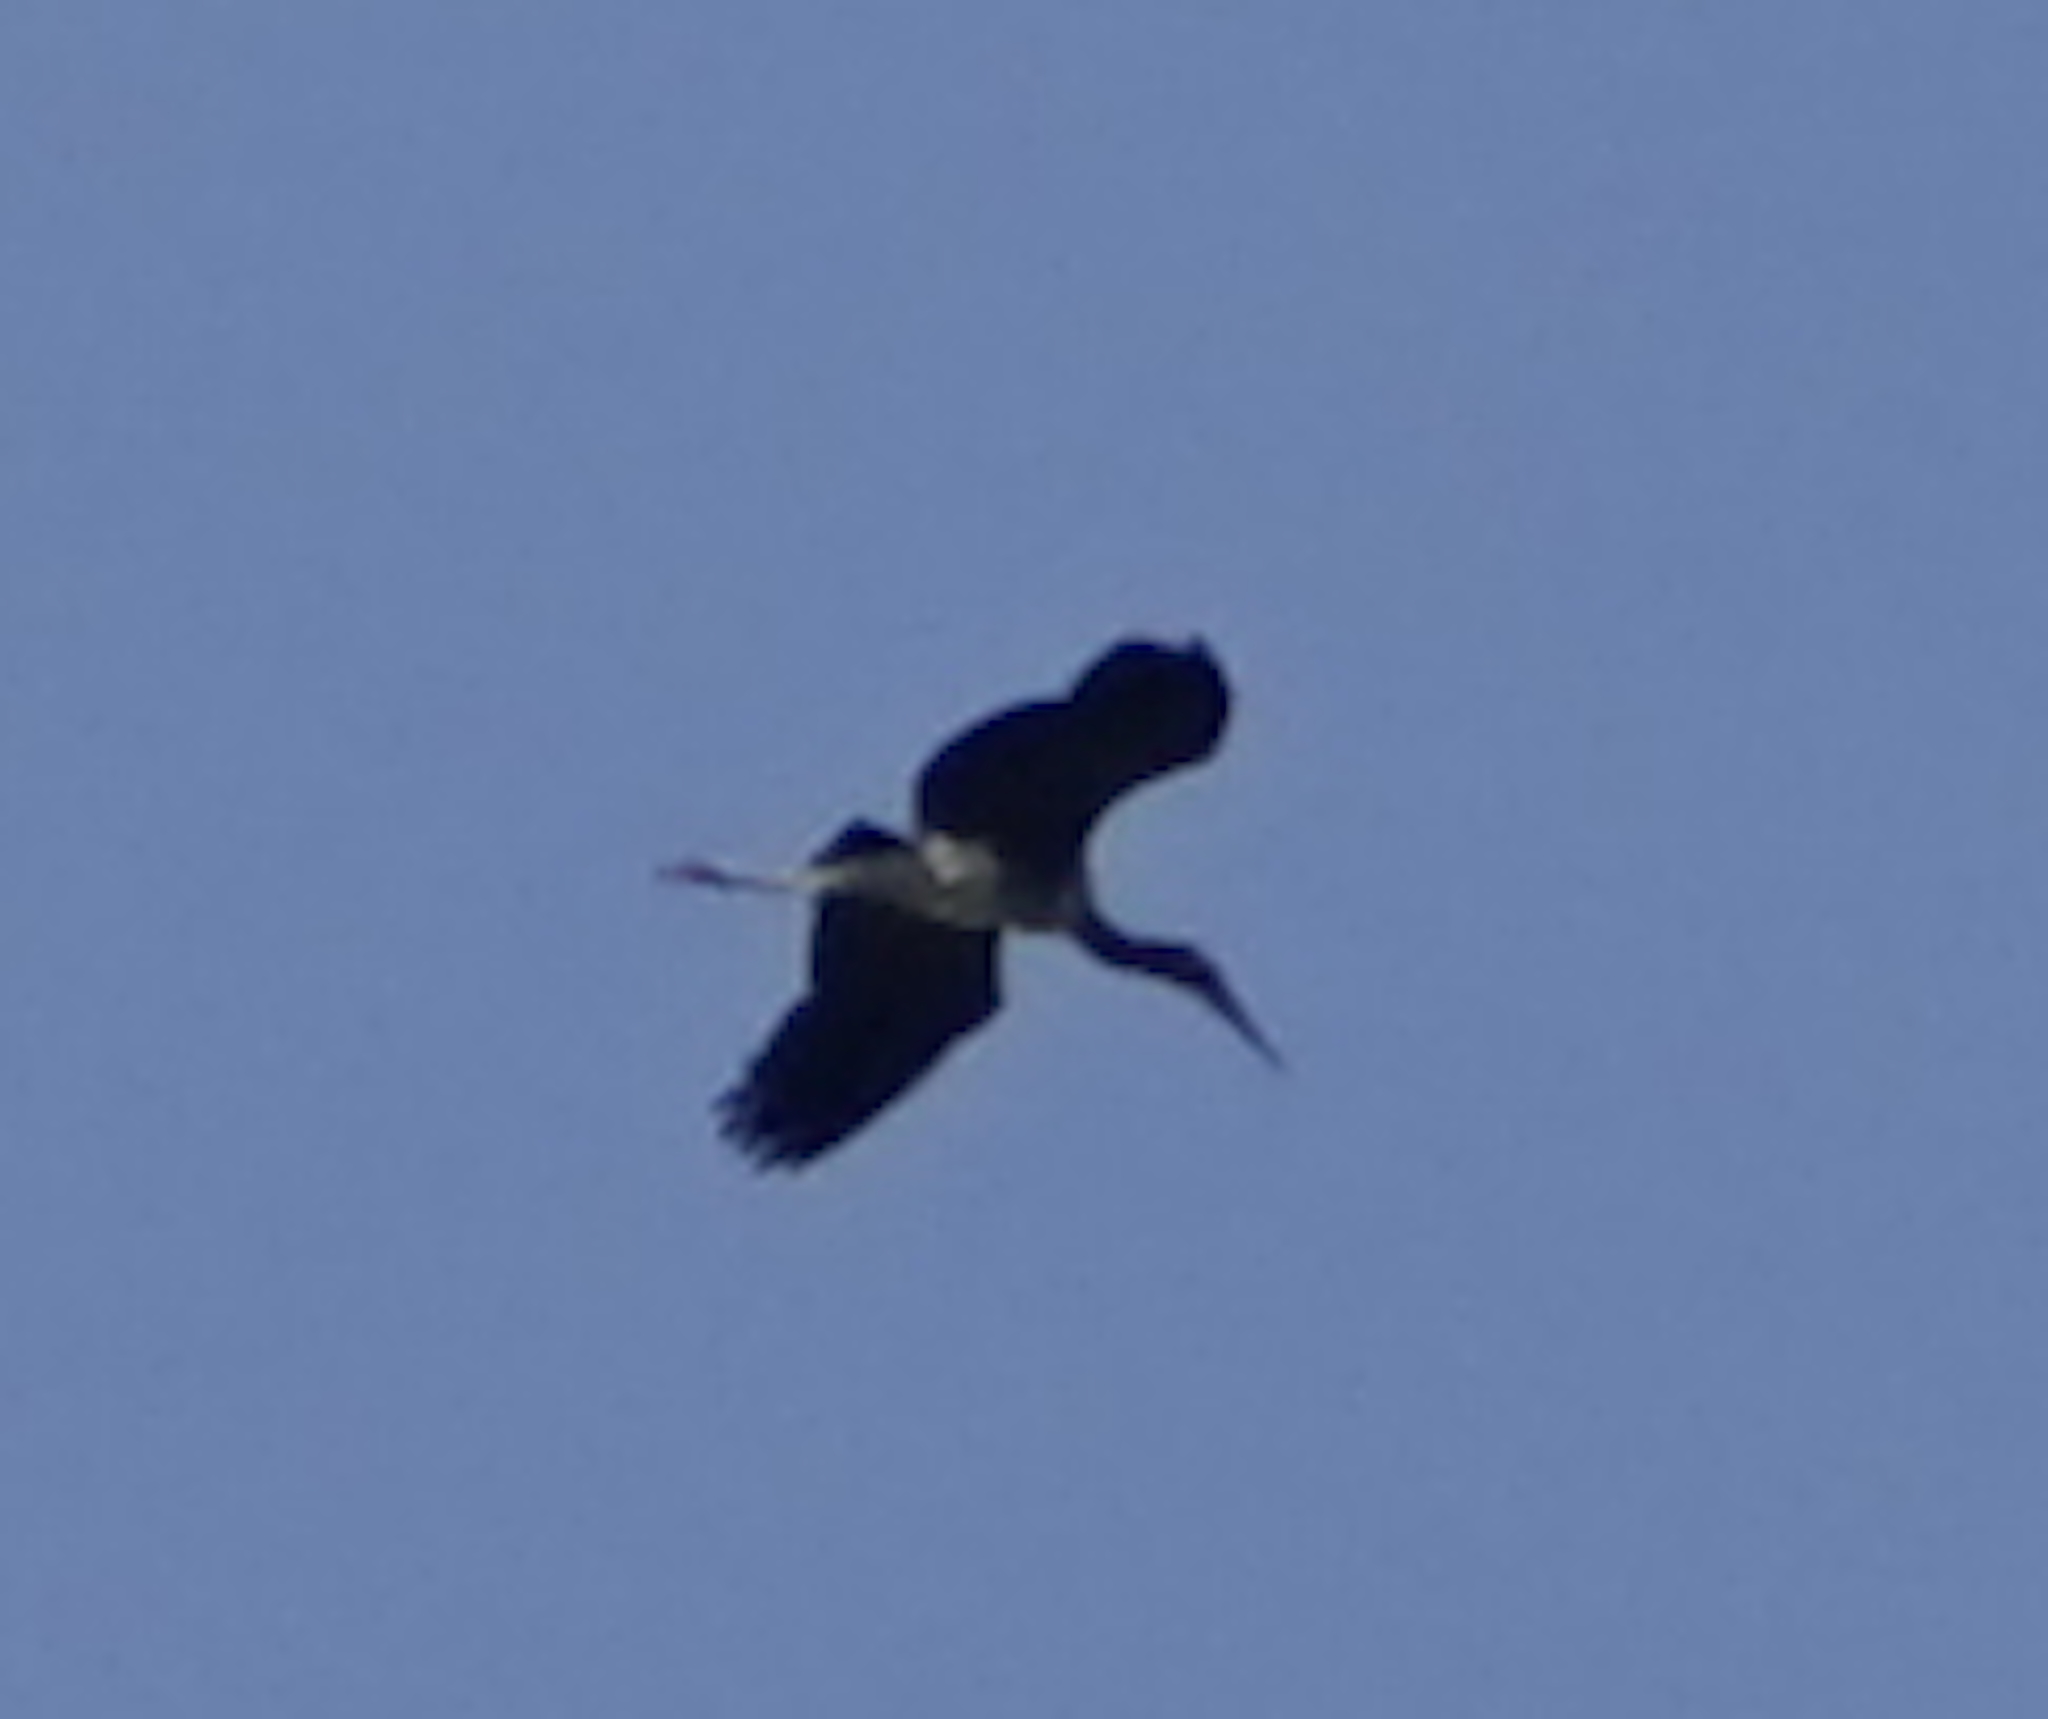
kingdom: Animalia
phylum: Chordata
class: Aves
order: Ciconiiformes
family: Ciconiidae
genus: Mycteria
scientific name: Mycteria leucocephala
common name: Painted stork
